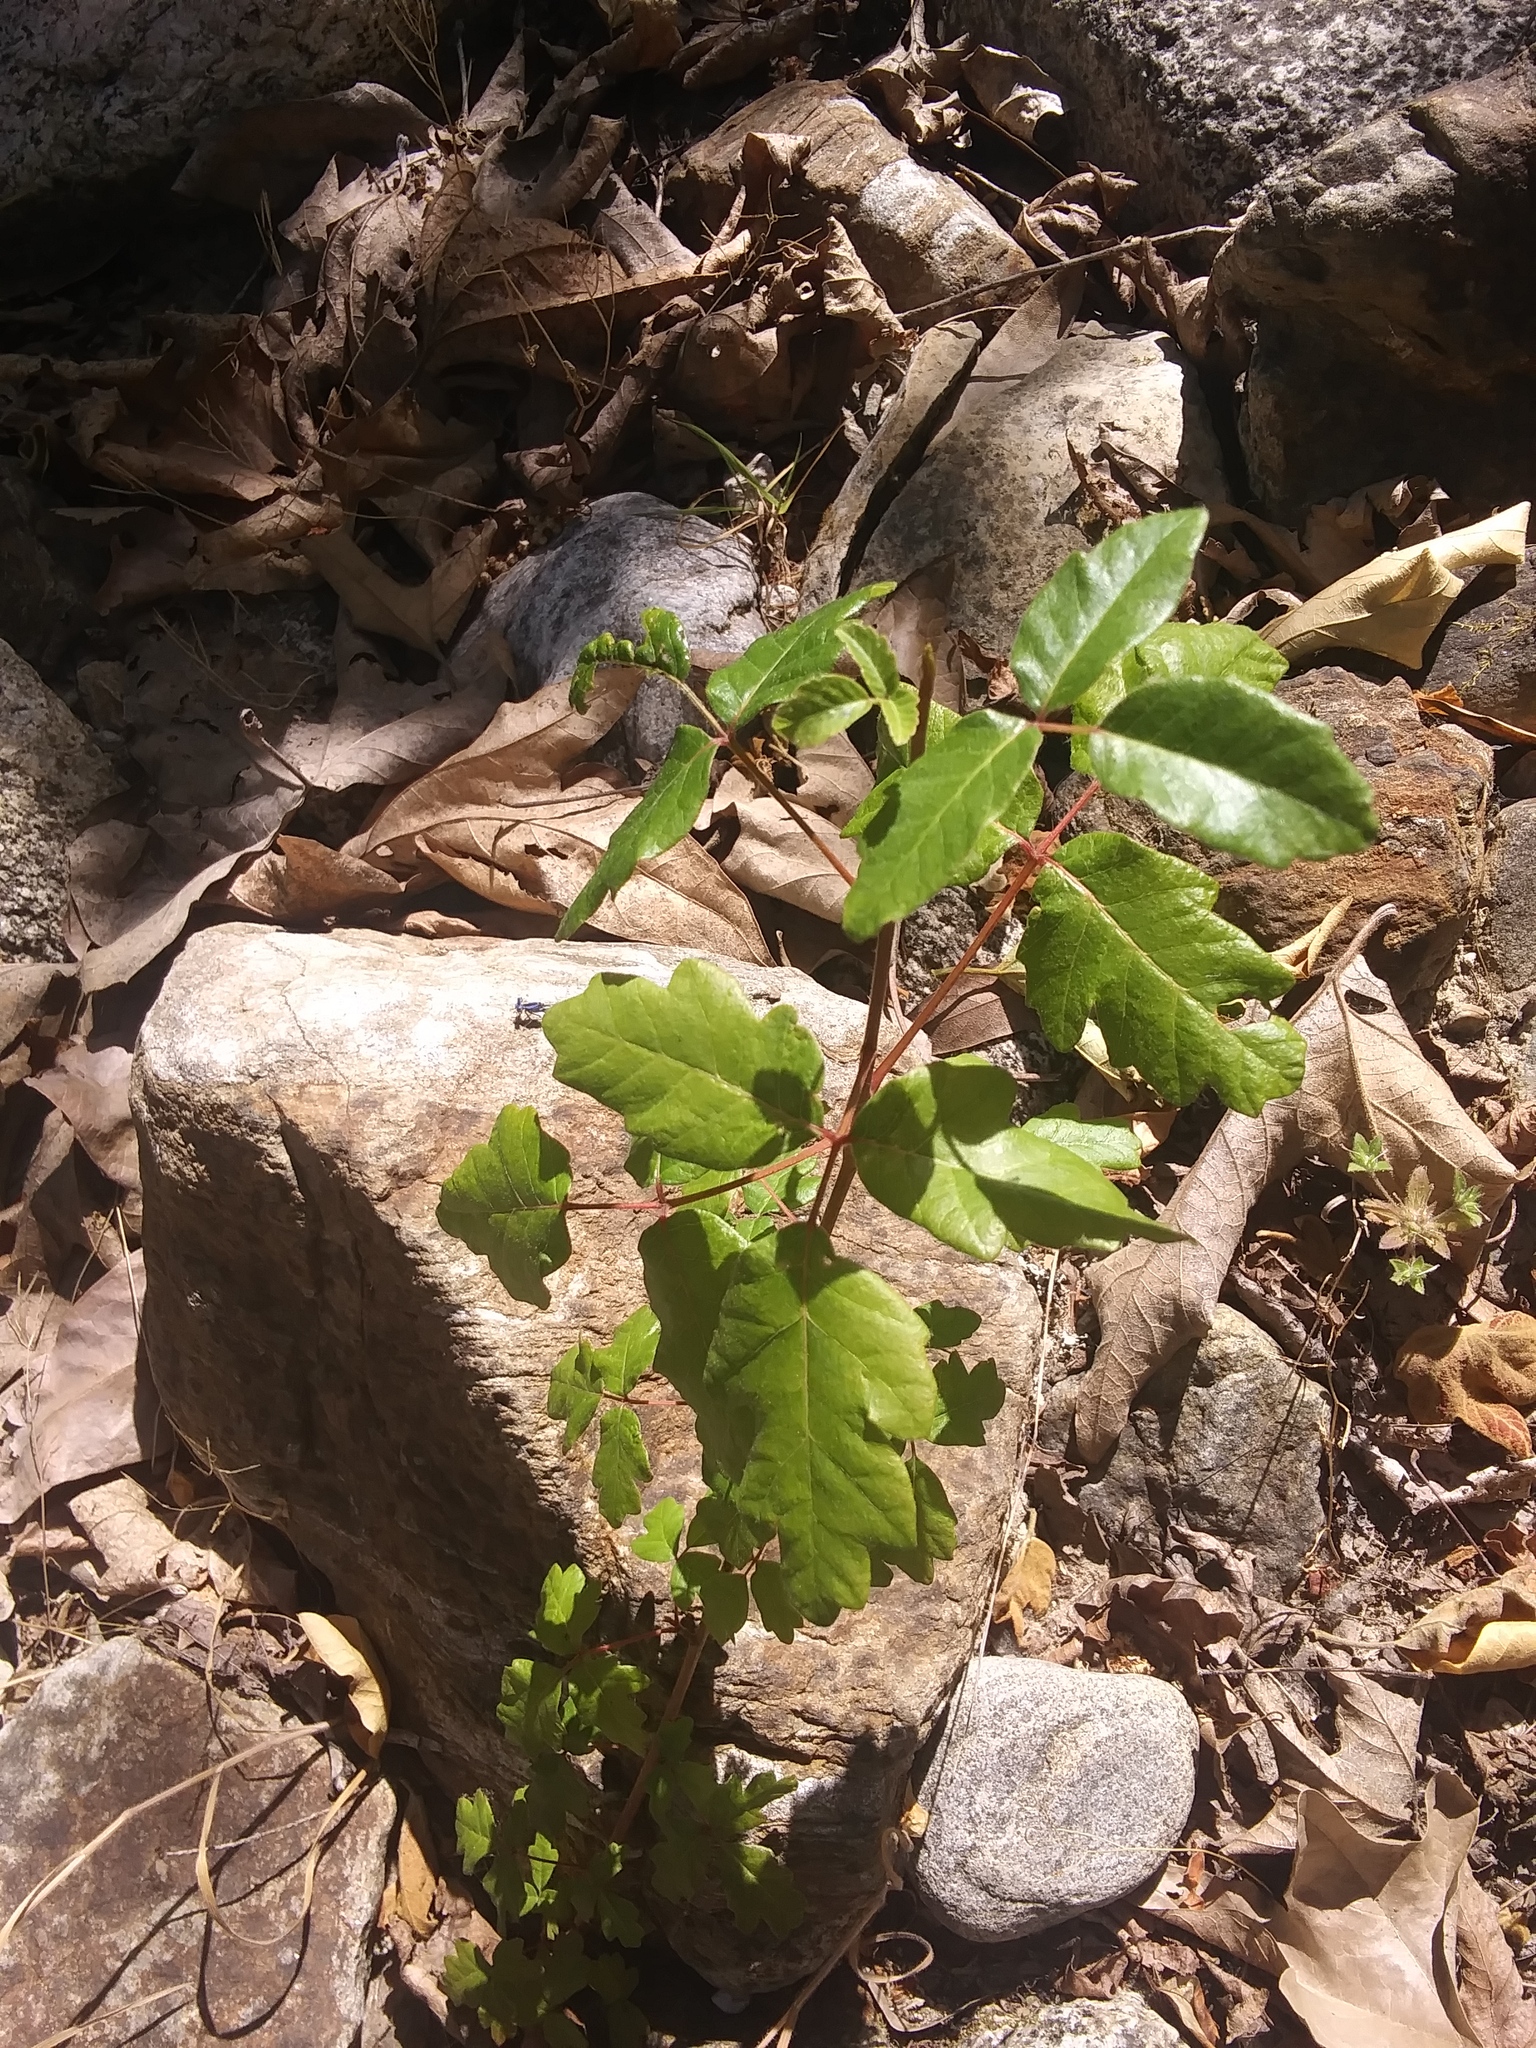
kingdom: Plantae
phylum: Tracheophyta
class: Magnoliopsida
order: Sapindales
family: Anacardiaceae
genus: Toxicodendron
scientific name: Toxicodendron diversilobum
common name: Pacific poison-oak
